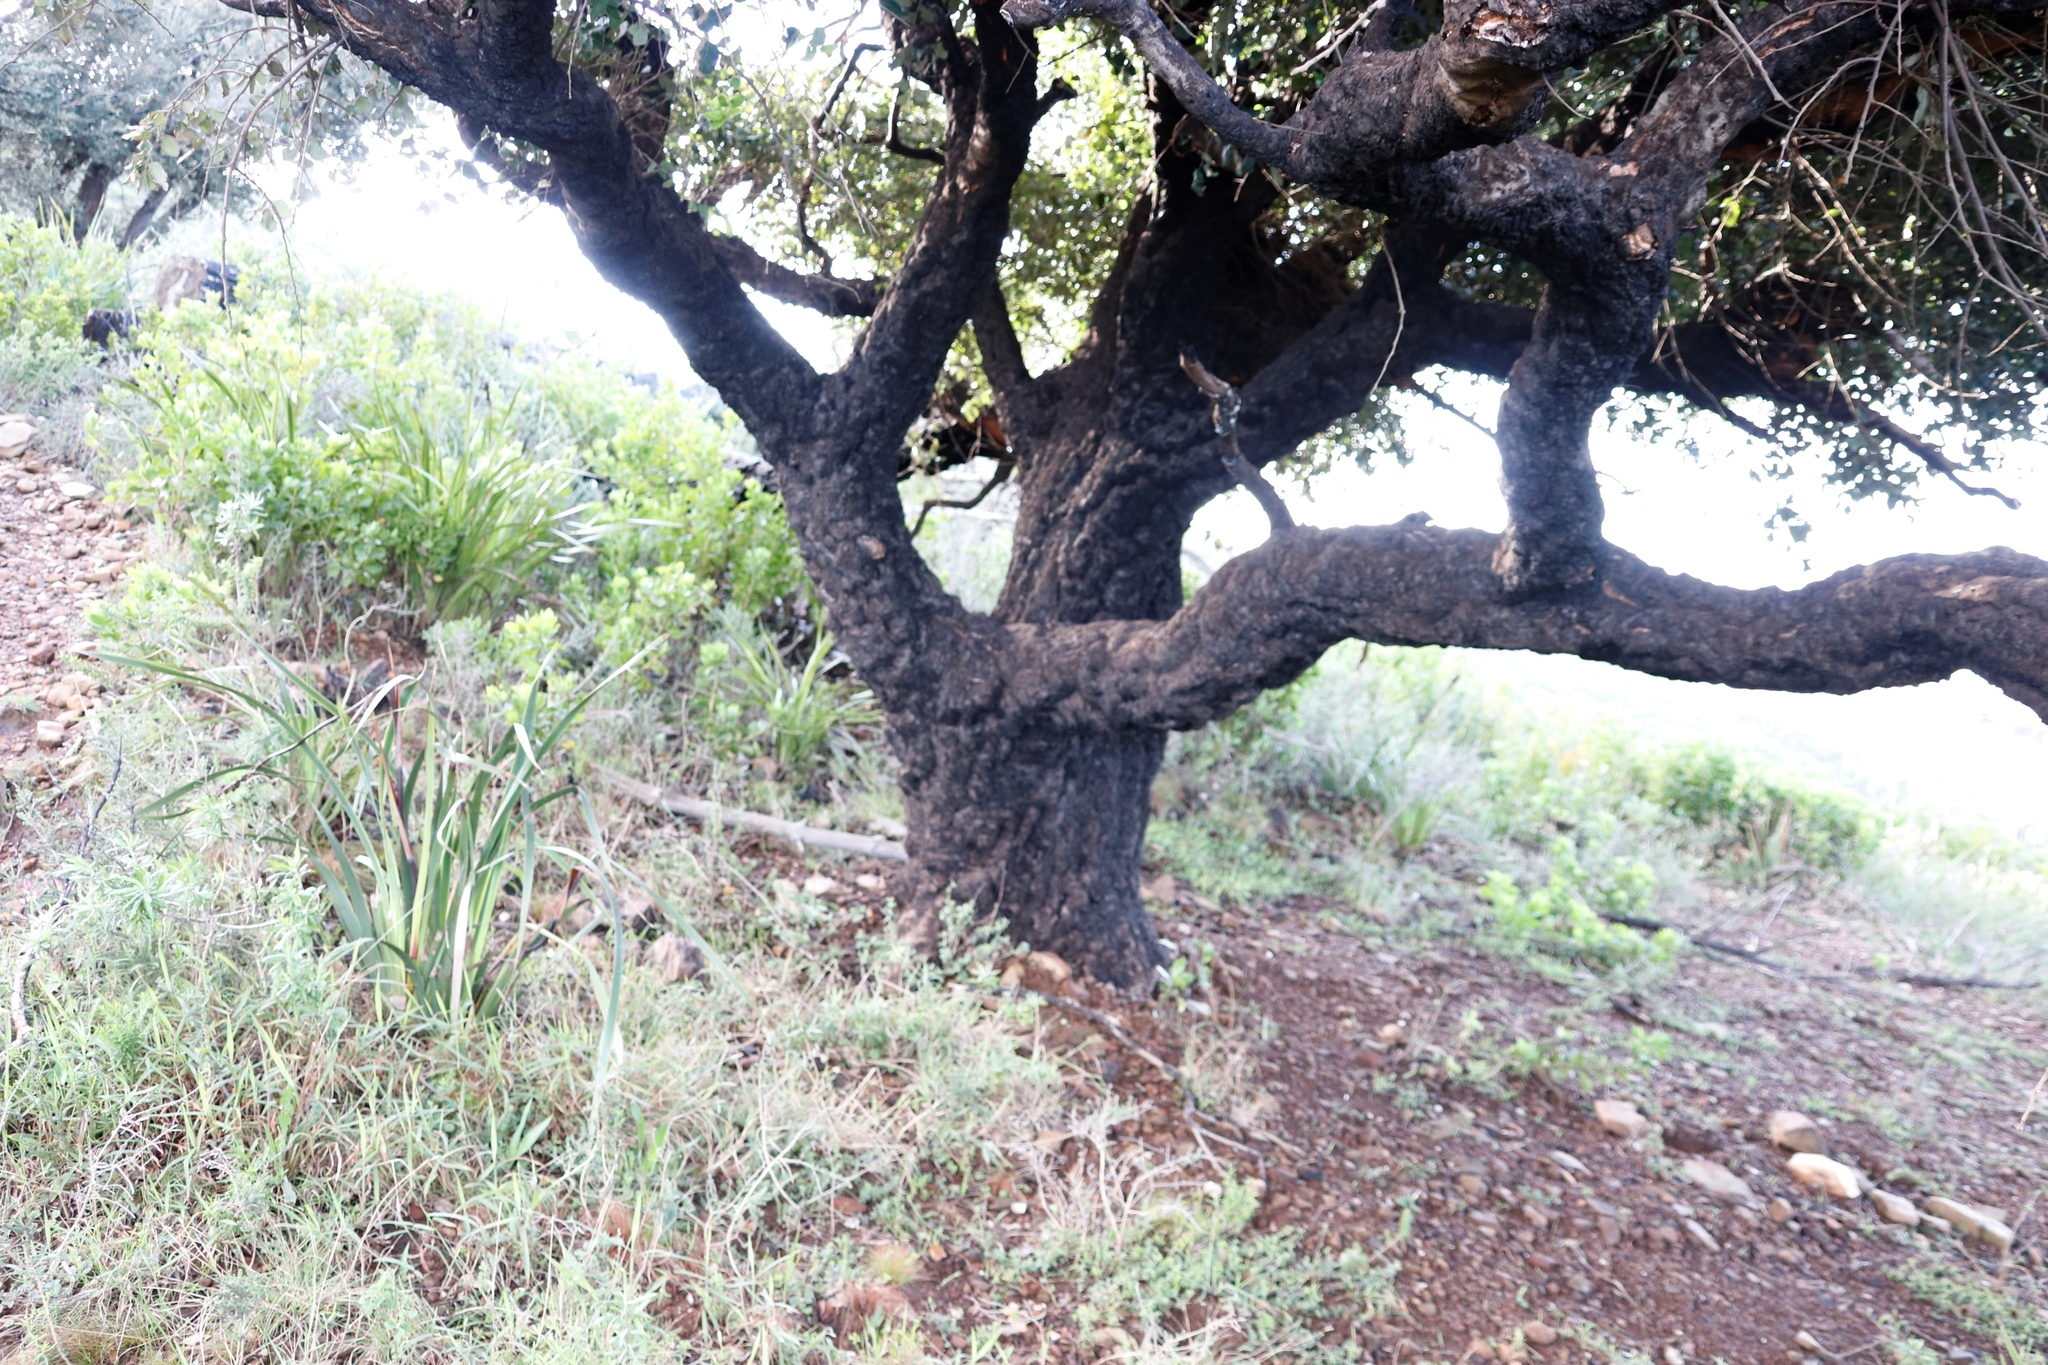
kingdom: Plantae
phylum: Tracheophyta
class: Magnoliopsida
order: Fagales
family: Fagaceae
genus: Quercus
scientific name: Quercus suber
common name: Cork oak
